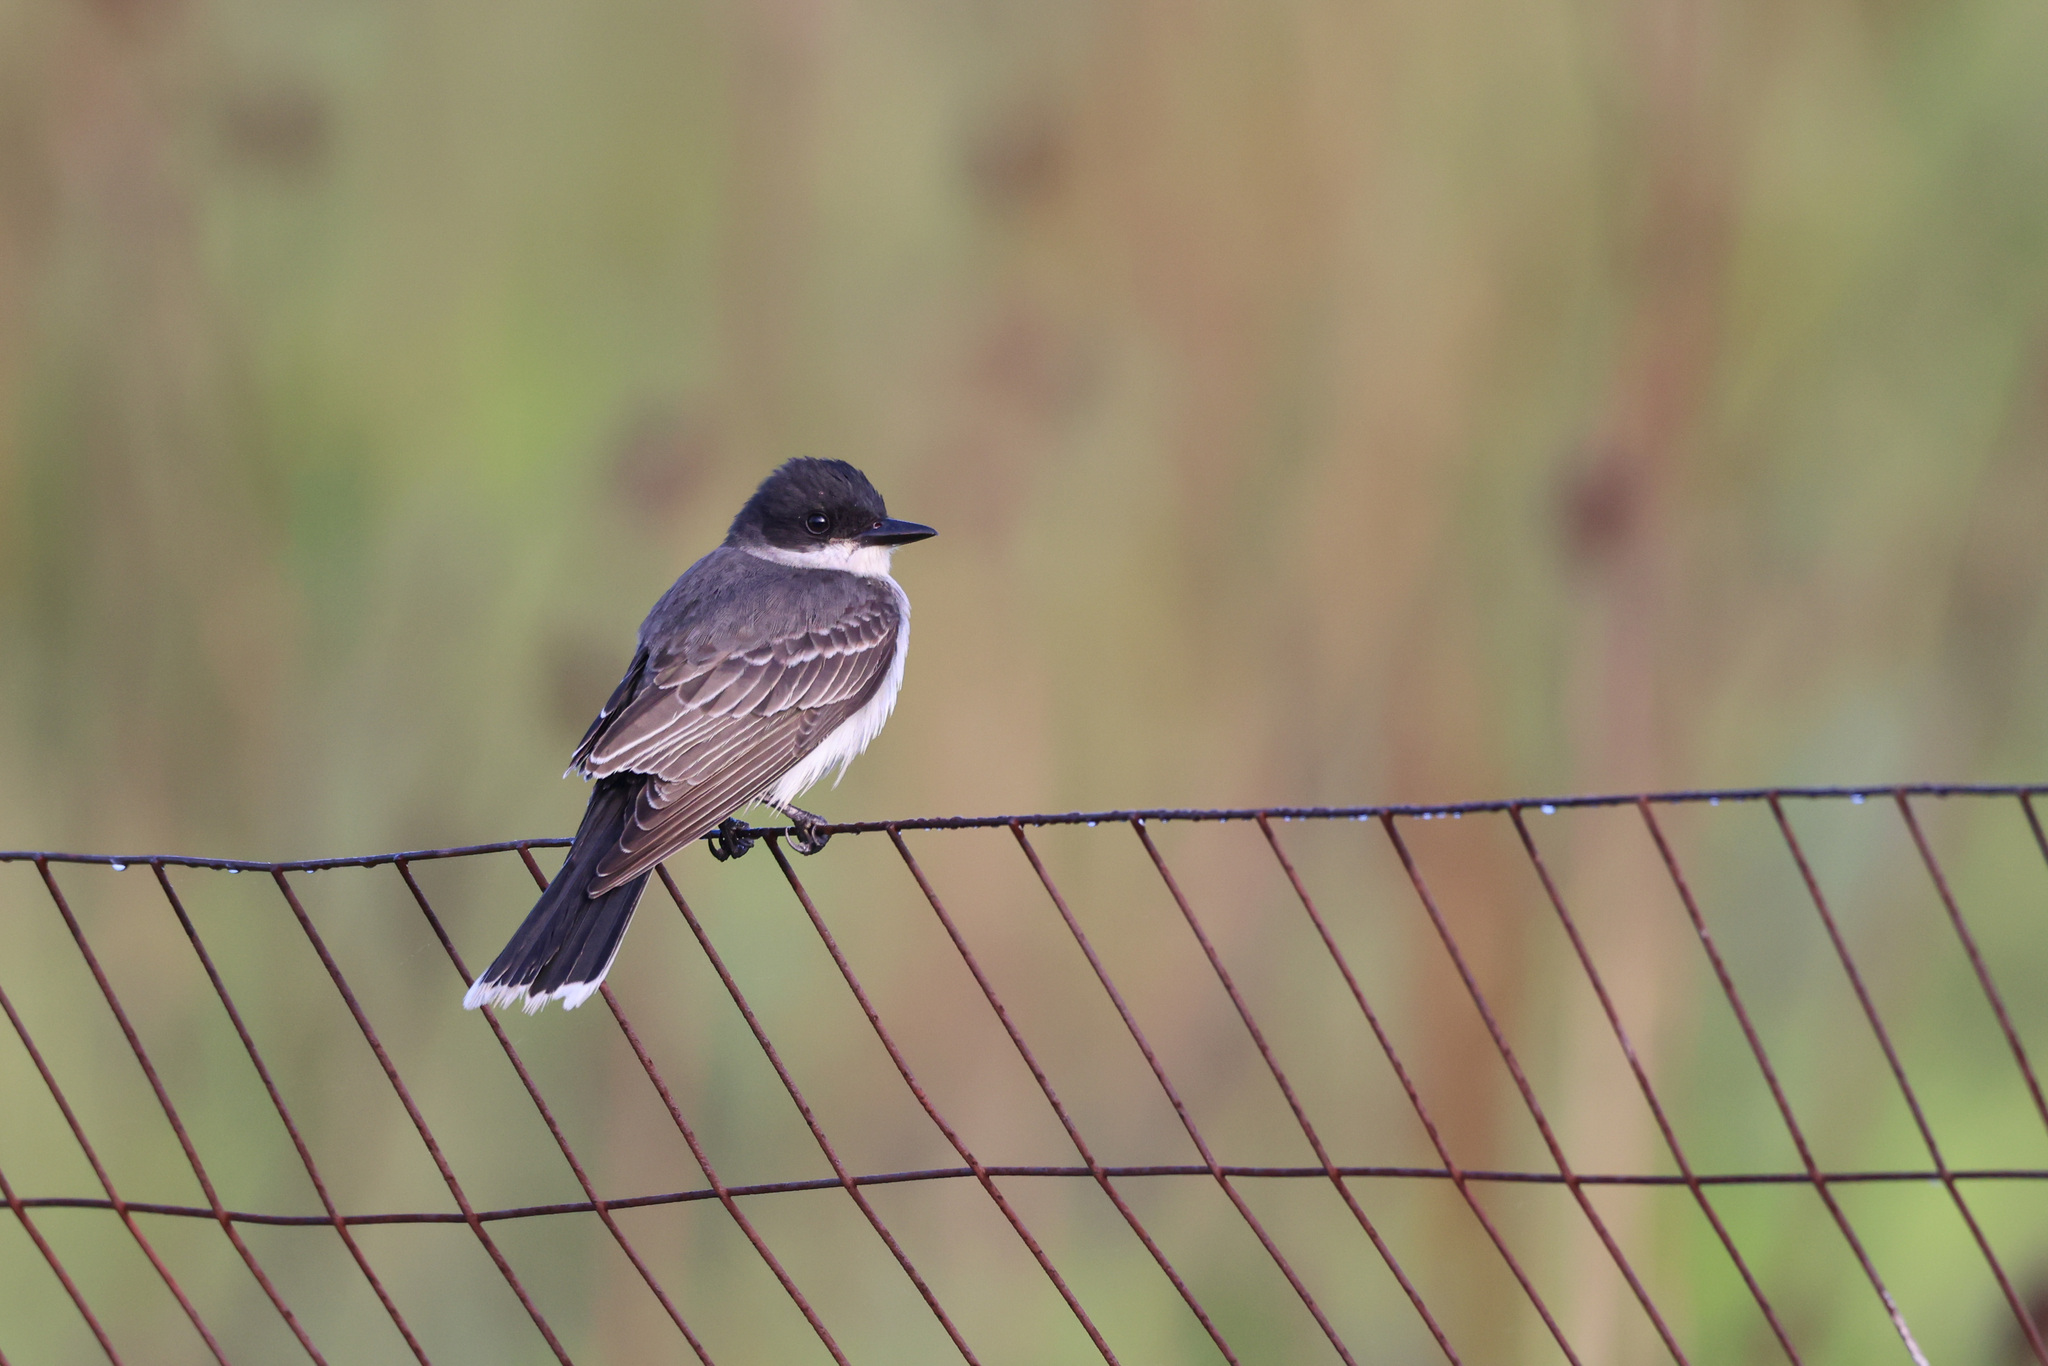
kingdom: Animalia
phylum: Chordata
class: Aves
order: Passeriformes
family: Tyrannidae
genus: Tyrannus
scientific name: Tyrannus tyrannus
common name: Eastern kingbird
